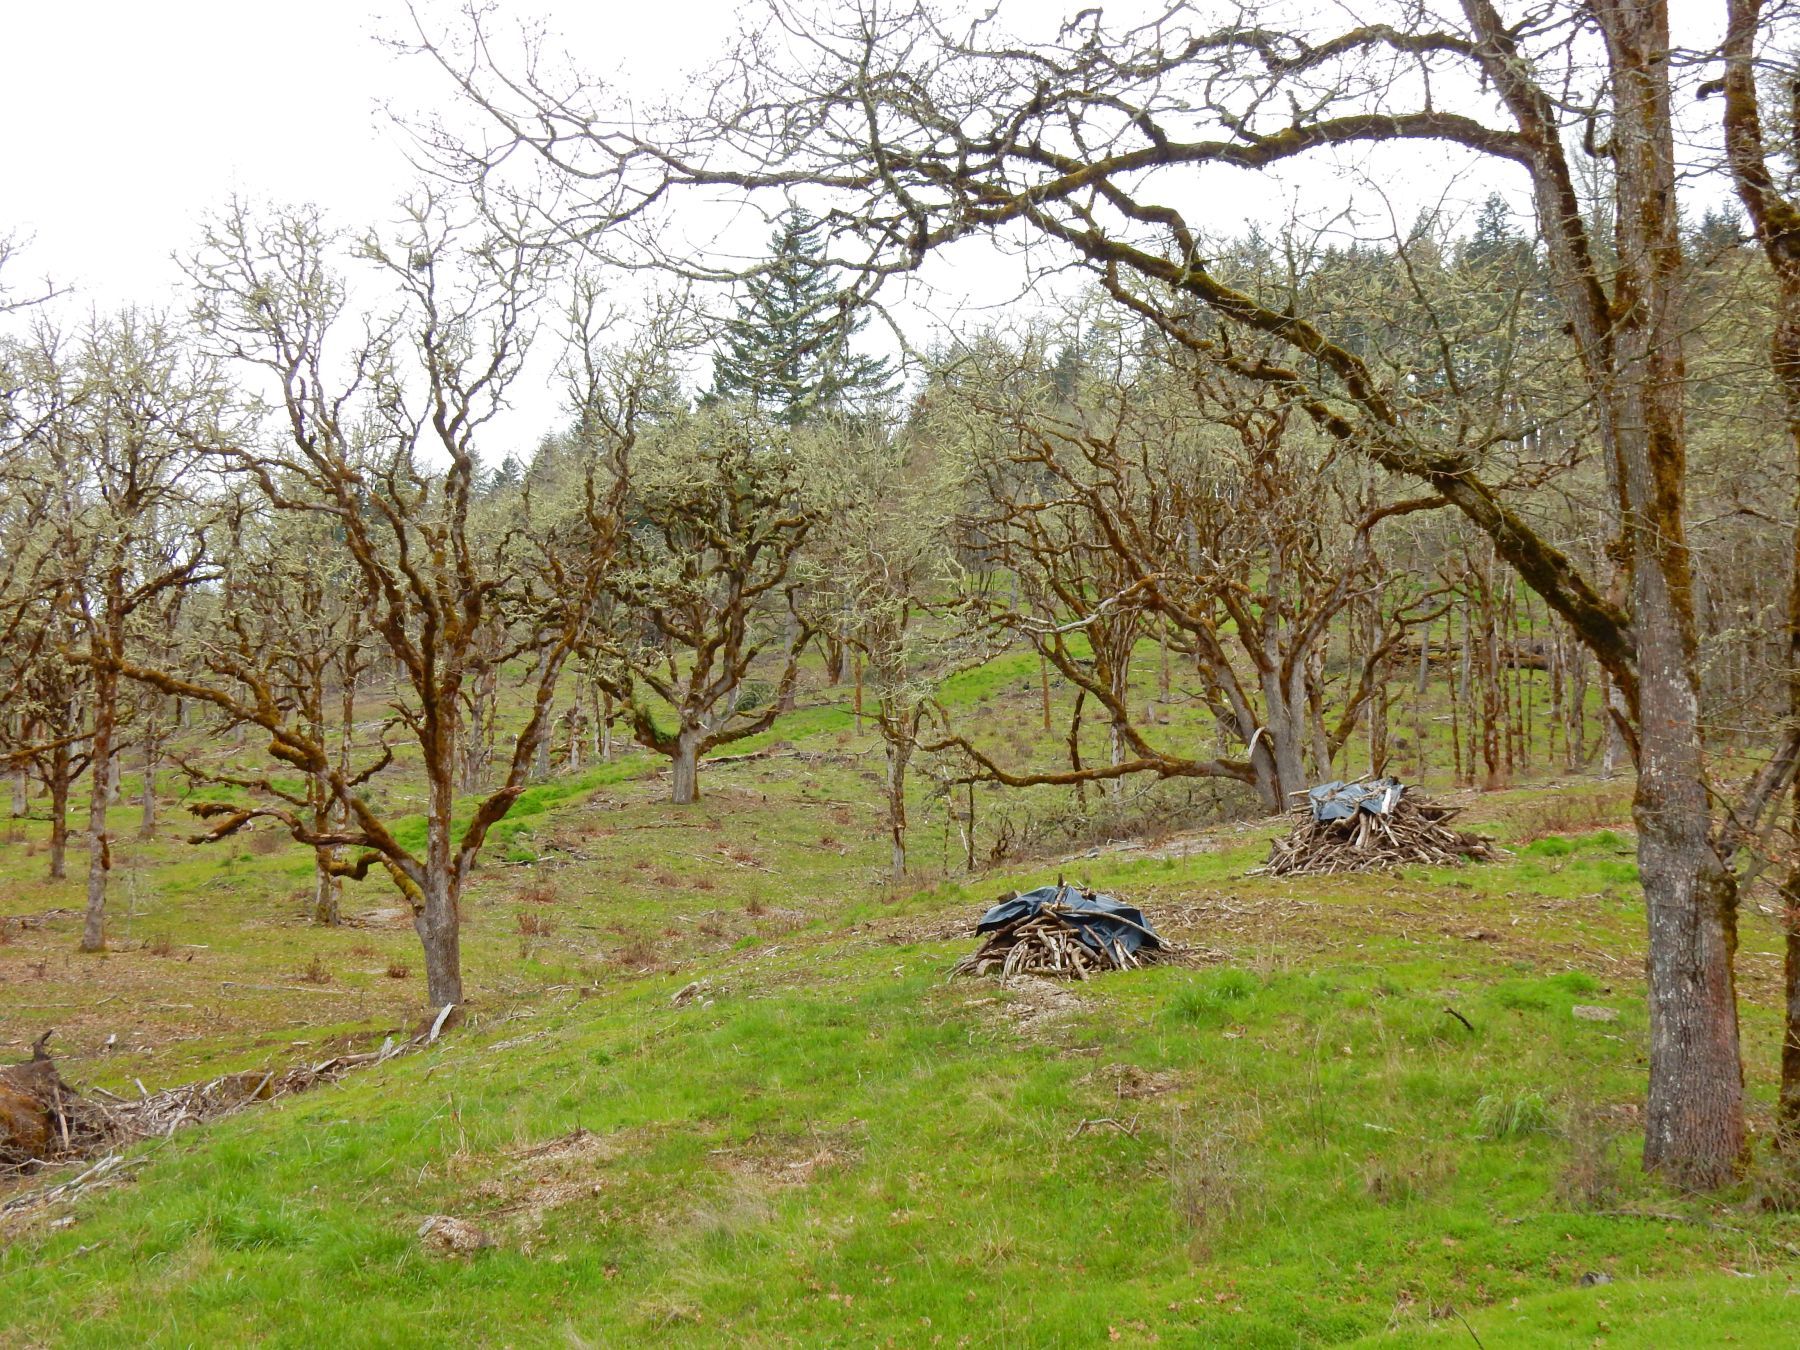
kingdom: Plantae
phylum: Tracheophyta
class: Magnoliopsida
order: Fagales
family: Fagaceae
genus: Quercus
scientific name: Quercus garryana
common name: Garry oak
